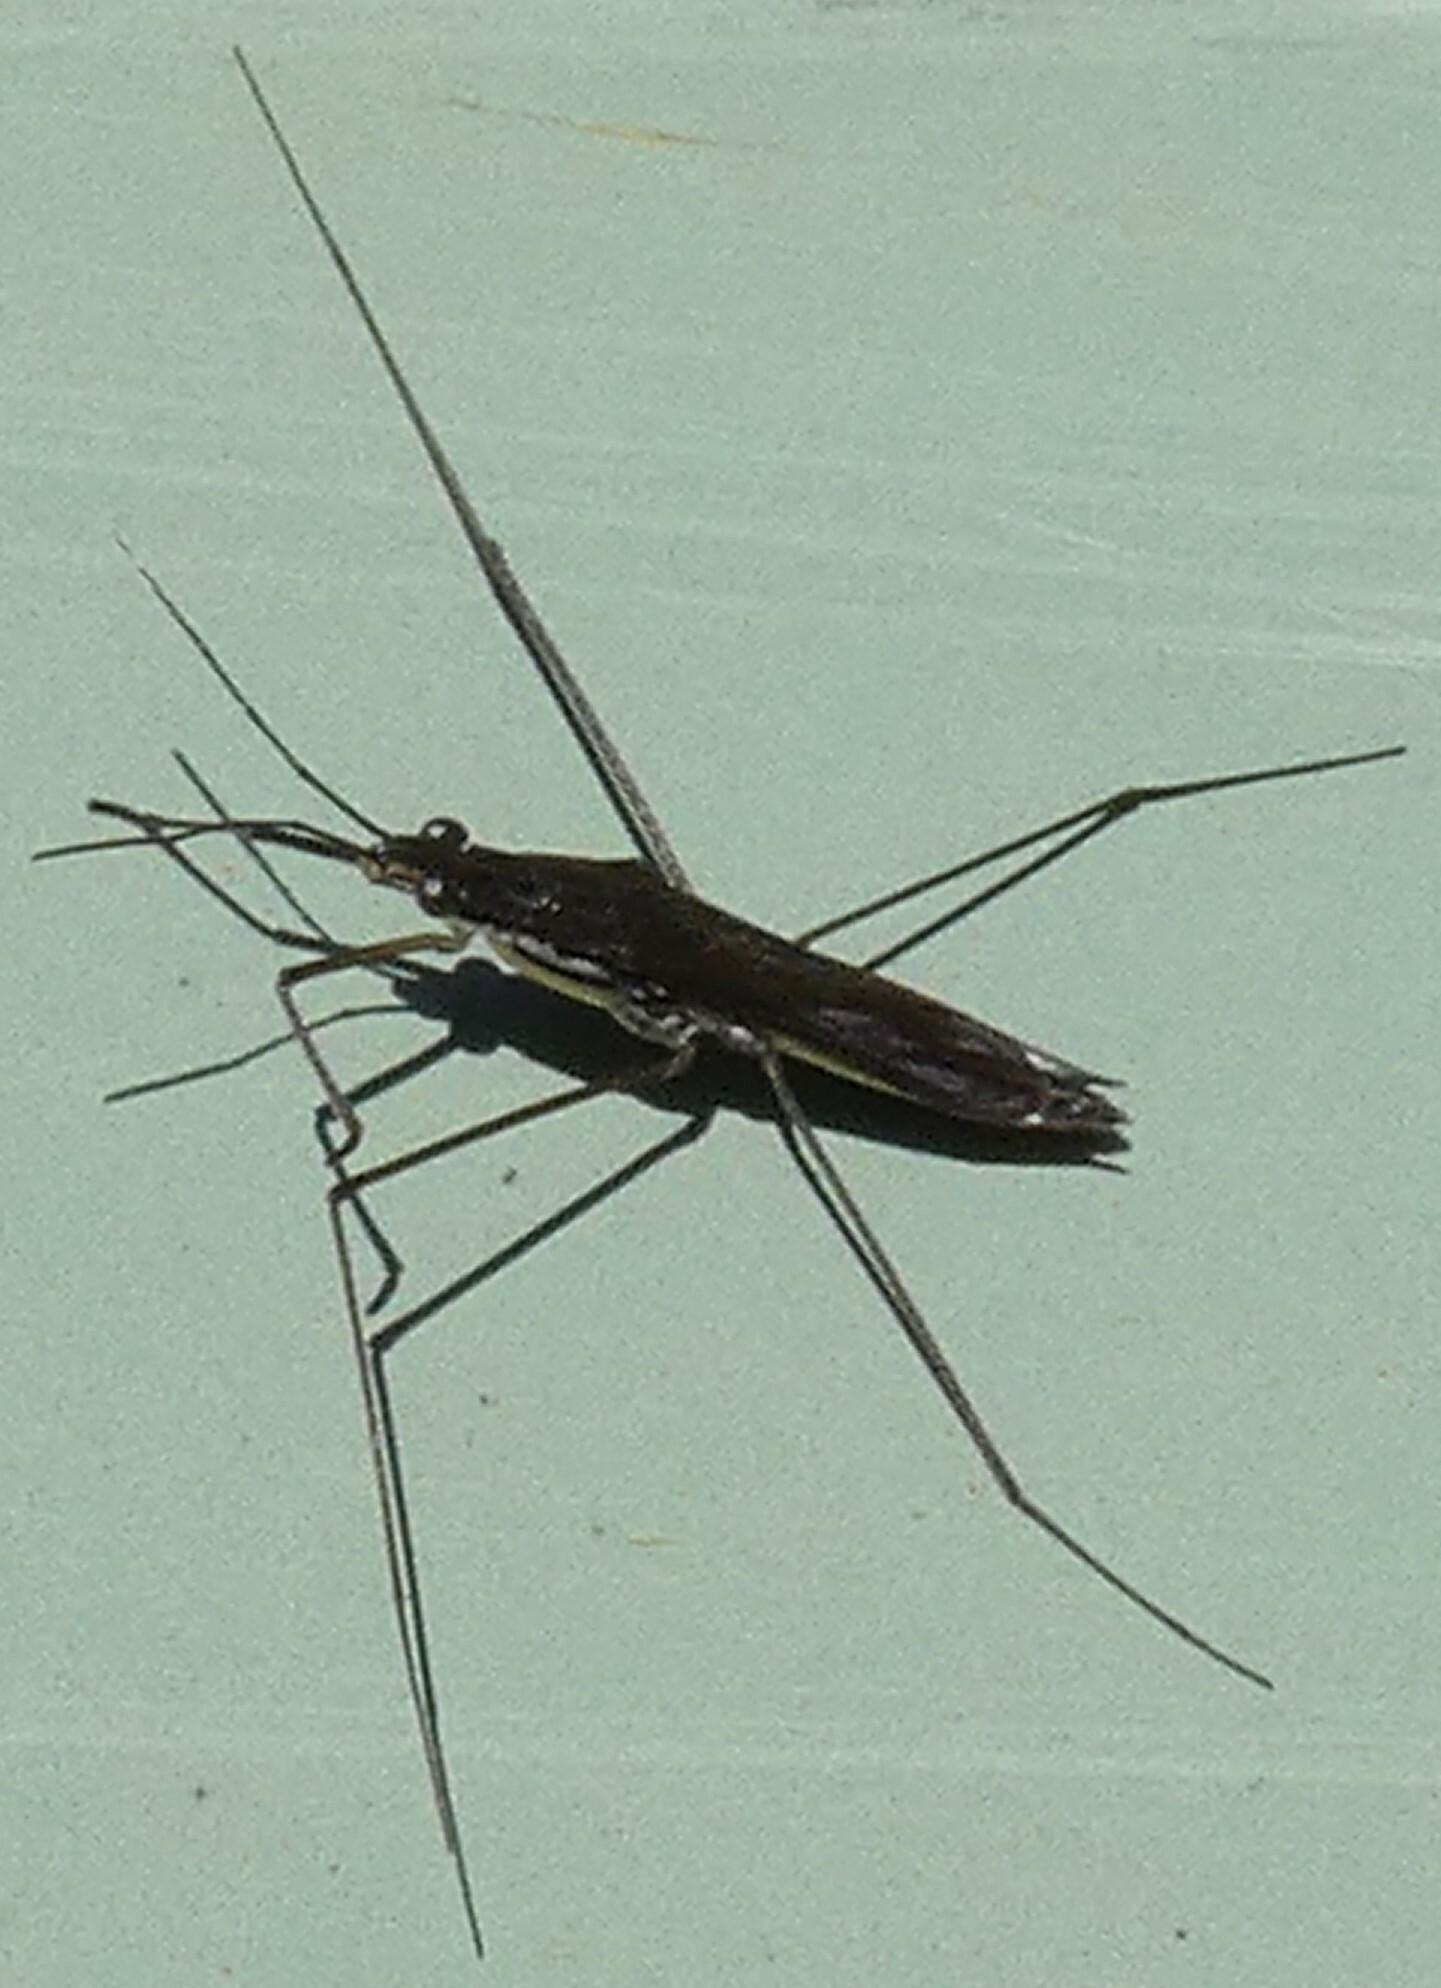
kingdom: Animalia
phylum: Arthropoda
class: Insecta
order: Hemiptera
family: Gerridae
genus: Limnoporus
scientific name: Limnoporus canaliculatus
